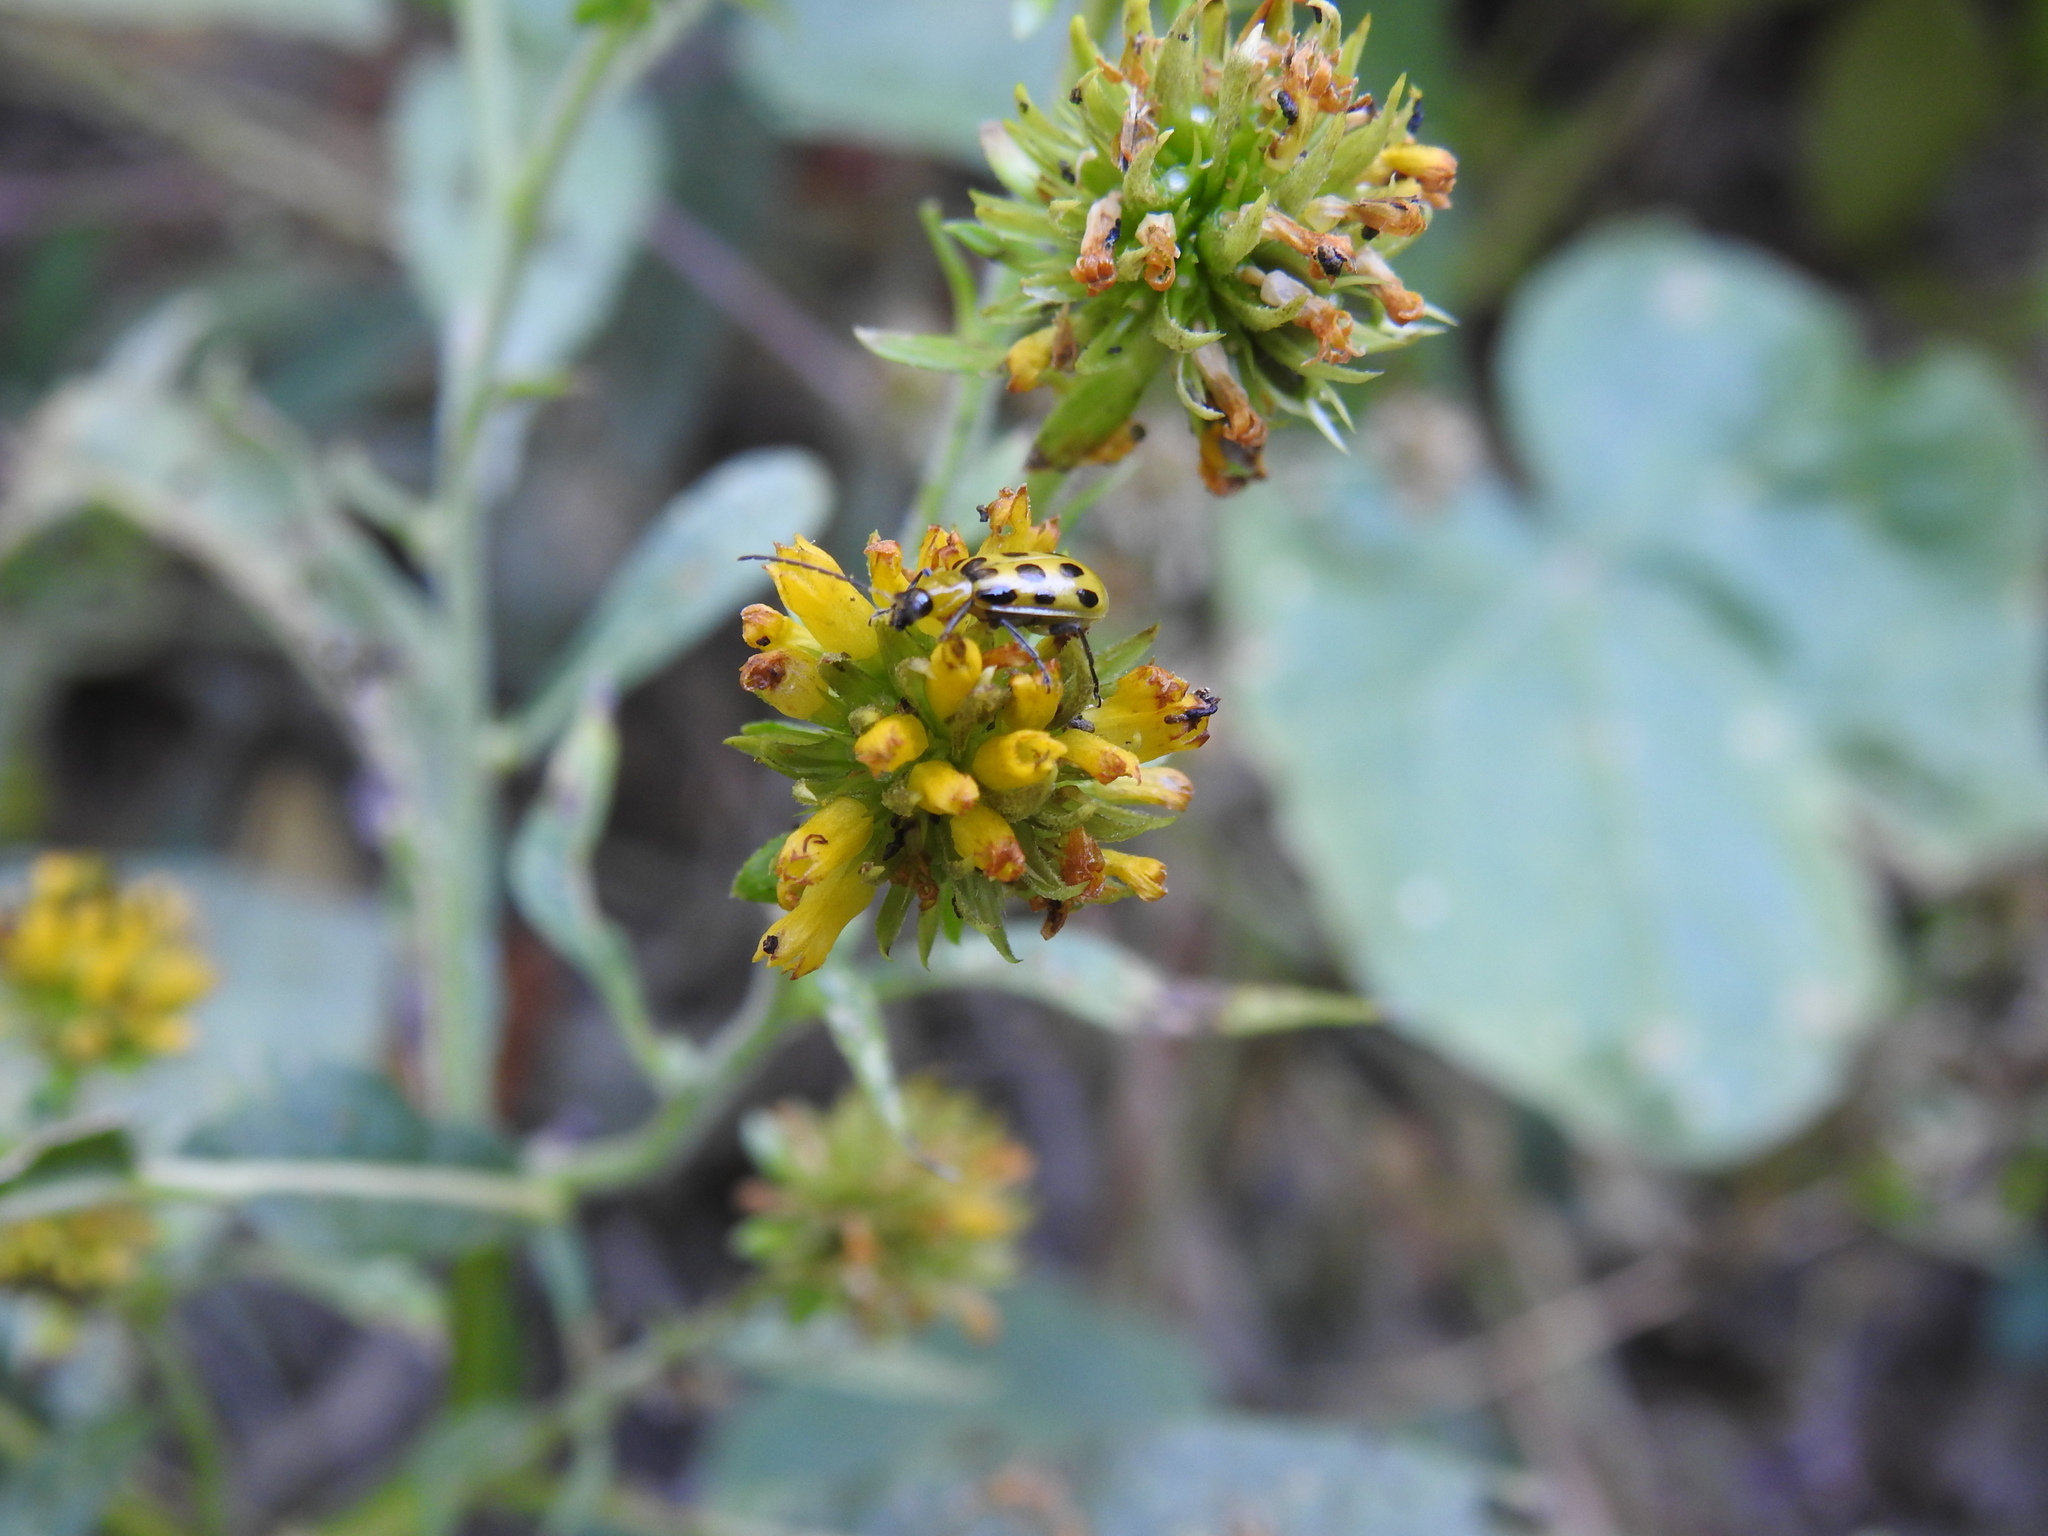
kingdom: Animalia
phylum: Arthropoda
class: Insecta
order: Coleoptera
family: Chrysomelidae
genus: Diabrotica
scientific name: Diabrotica undecimpunctata
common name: Spotted cucumber beetle
